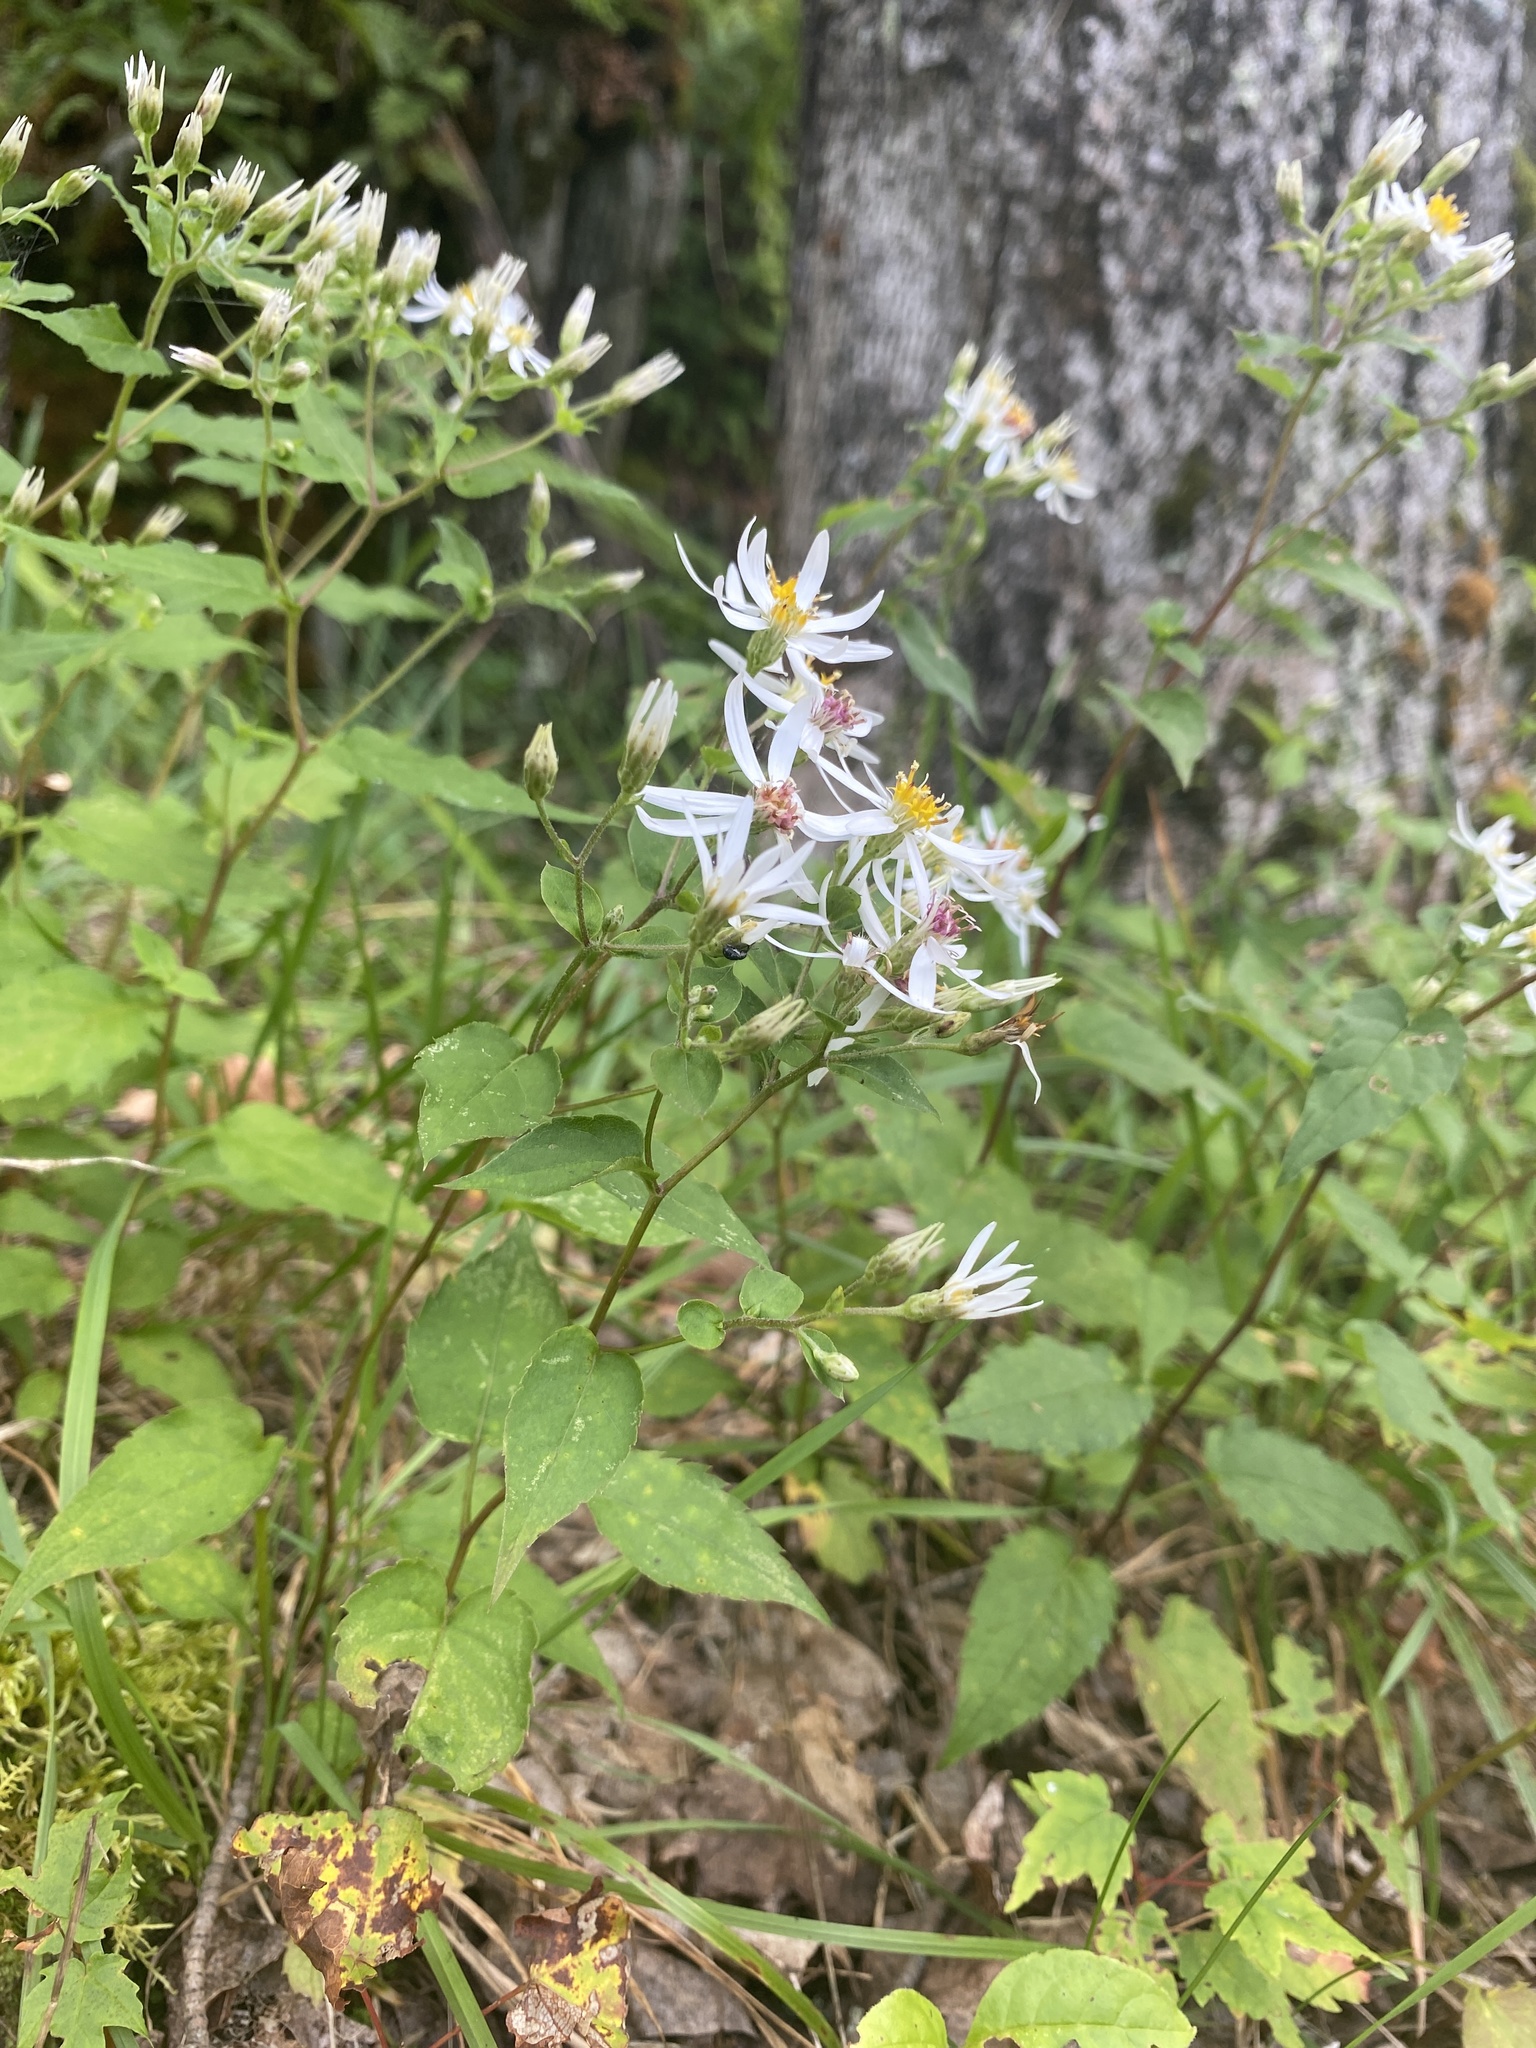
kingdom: Plantae
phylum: Tracheophyta
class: Magnoliopsida
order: Asterales
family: Asteraceae
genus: Eurybia
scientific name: Eurybia divaricata
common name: White wood aster
